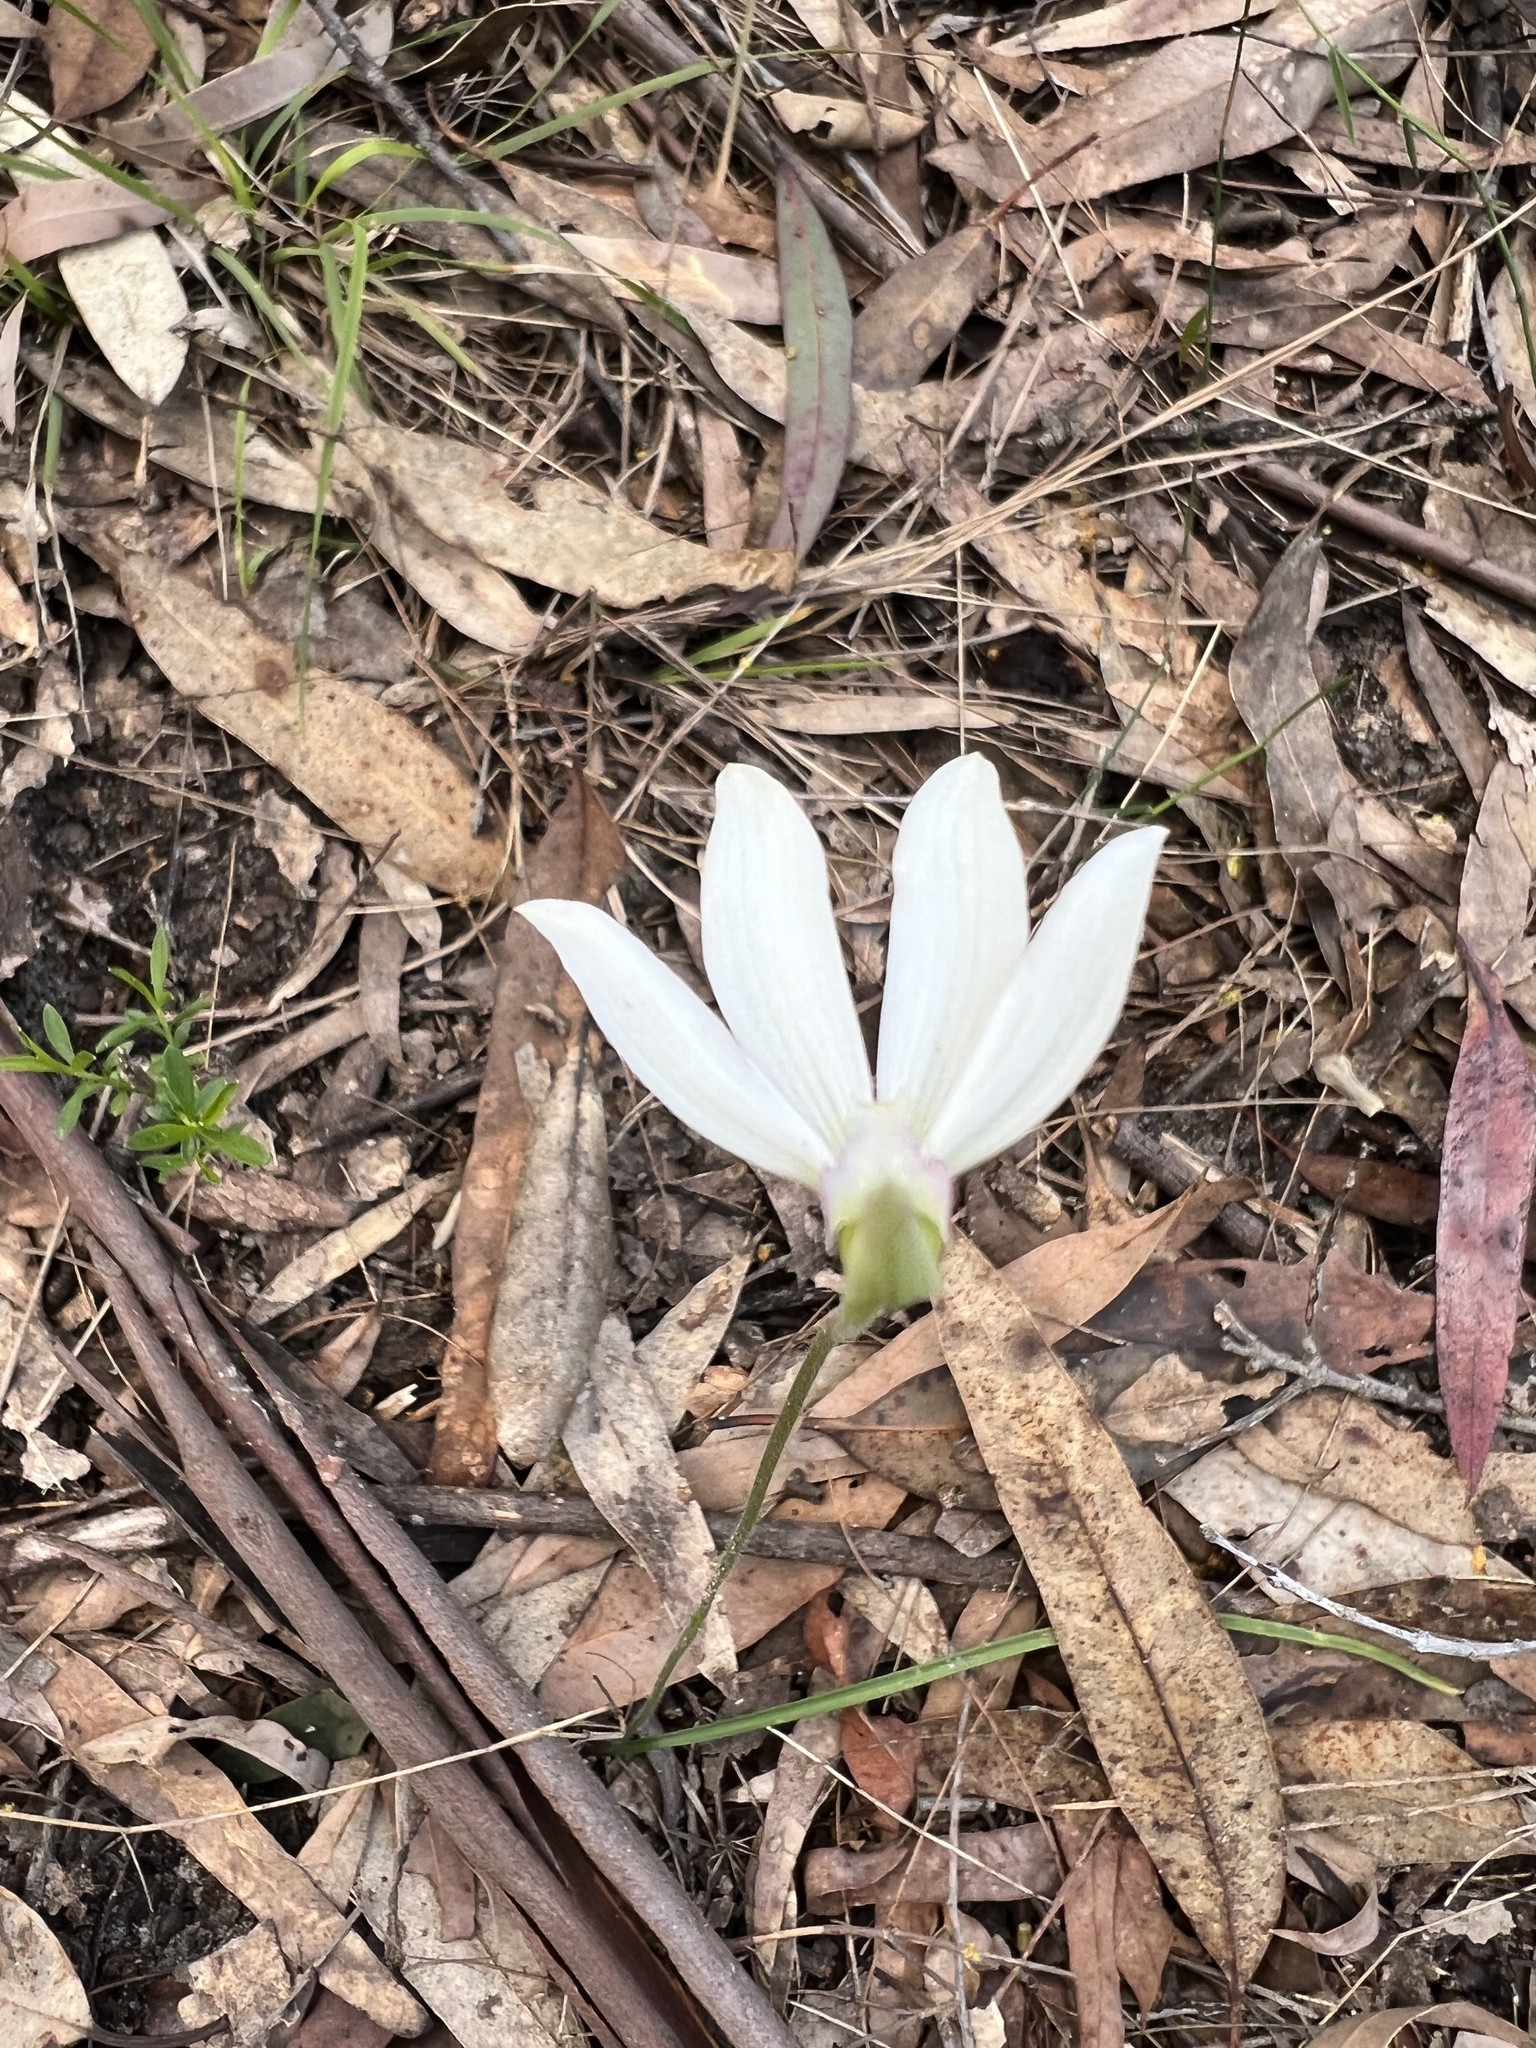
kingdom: Plantae
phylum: Tracheophyta
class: Liliopsida
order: Asparagales
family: Orchidaceae
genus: Caladenia
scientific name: Caladenia catenata
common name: White caladenia
